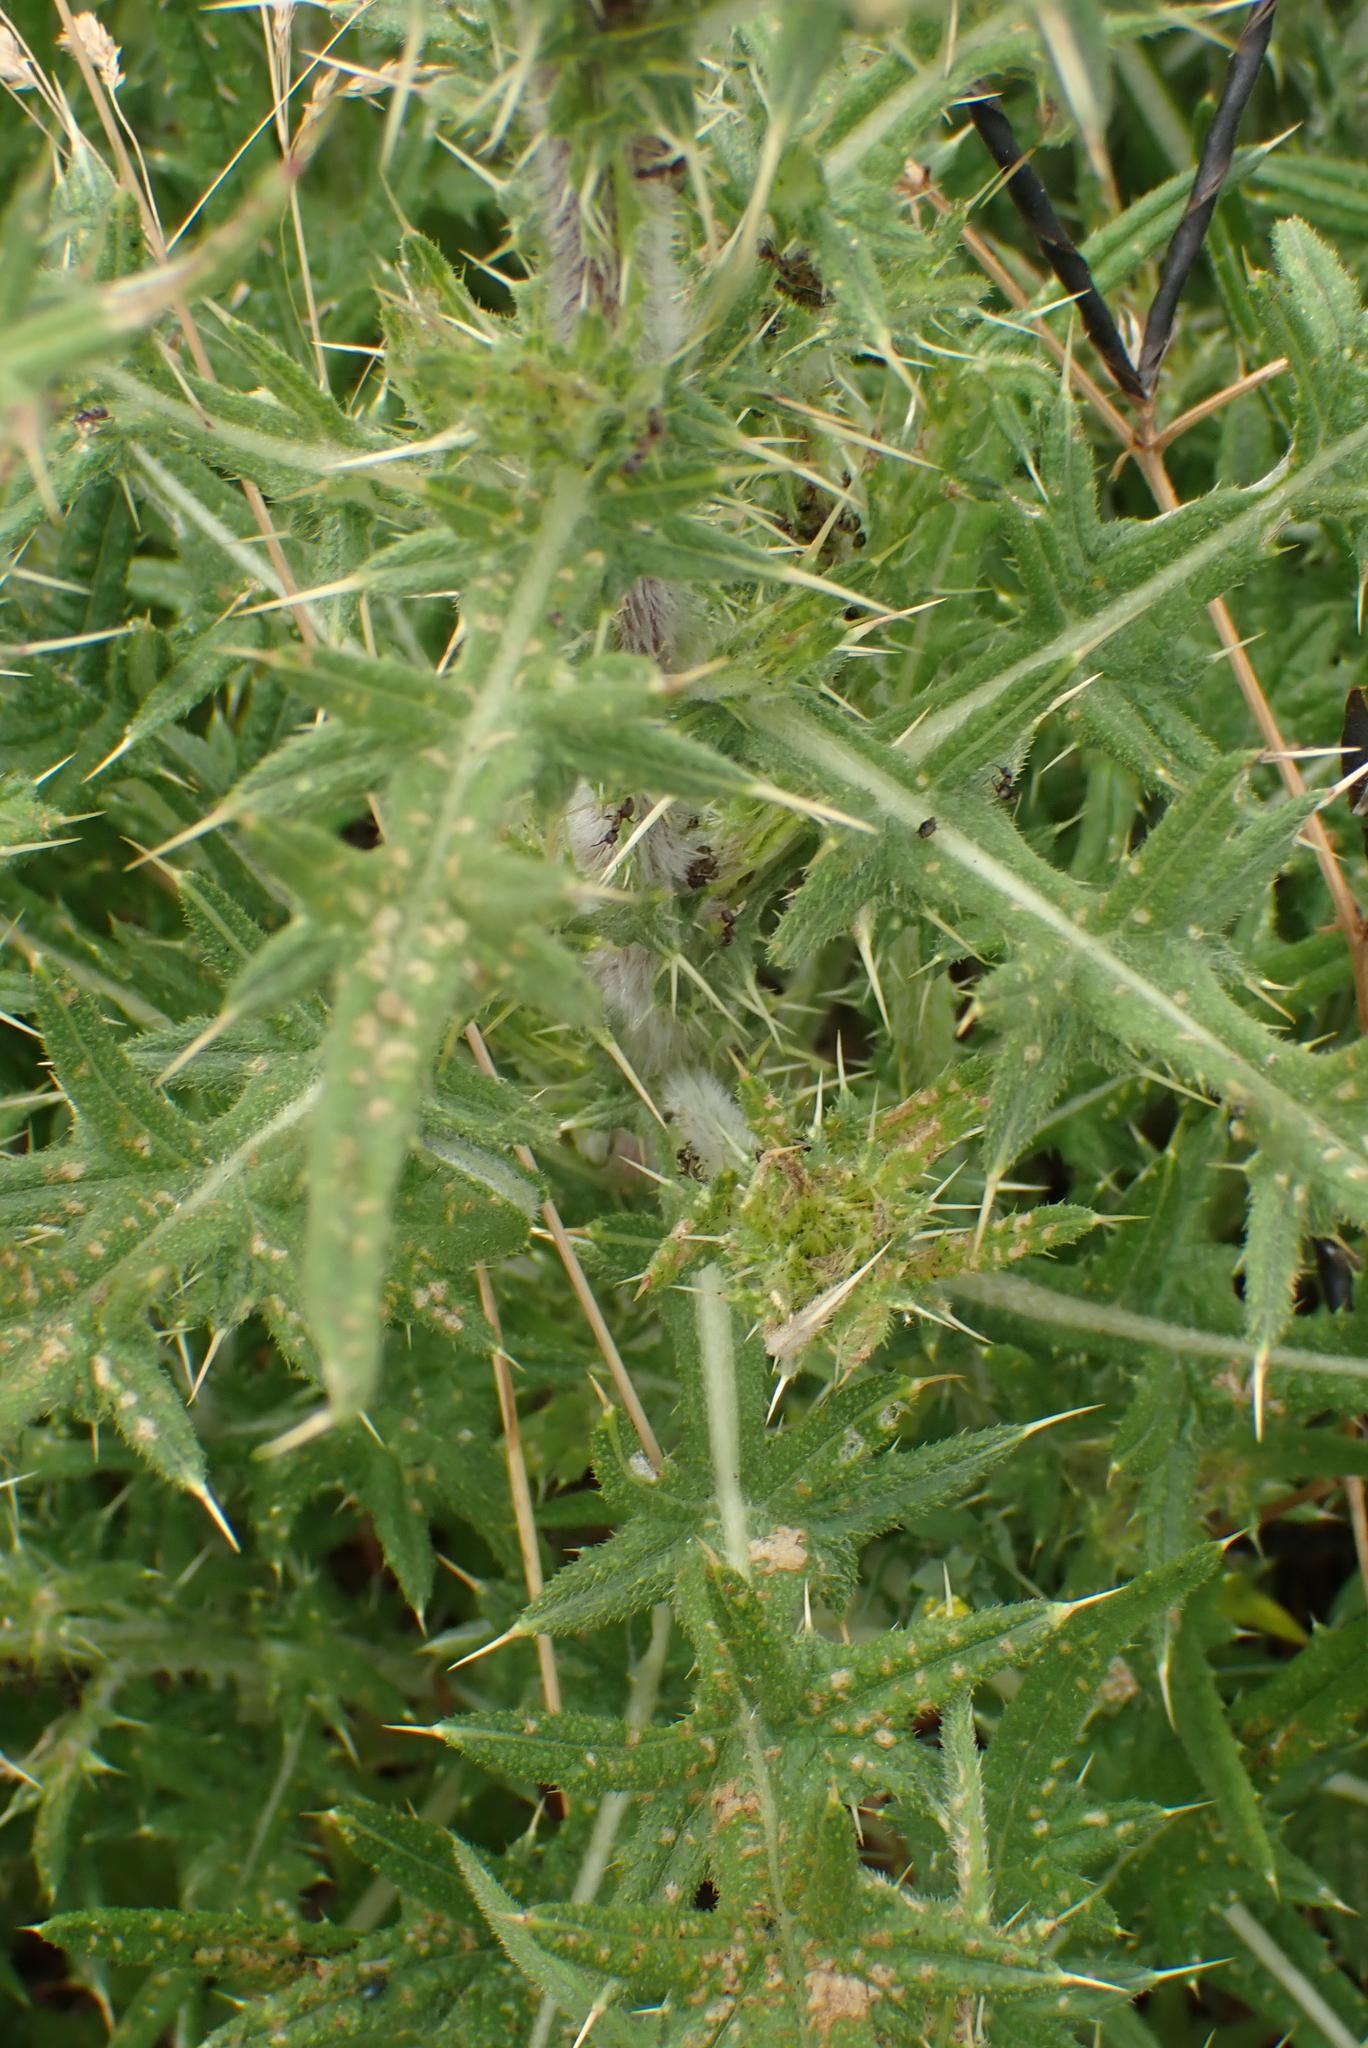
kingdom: Plantae
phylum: Tracheophyta
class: Magnoliopsida
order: Asterales
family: Asteraceae
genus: Cirsium
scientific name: Cirsium vulgare
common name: Bull thistle
